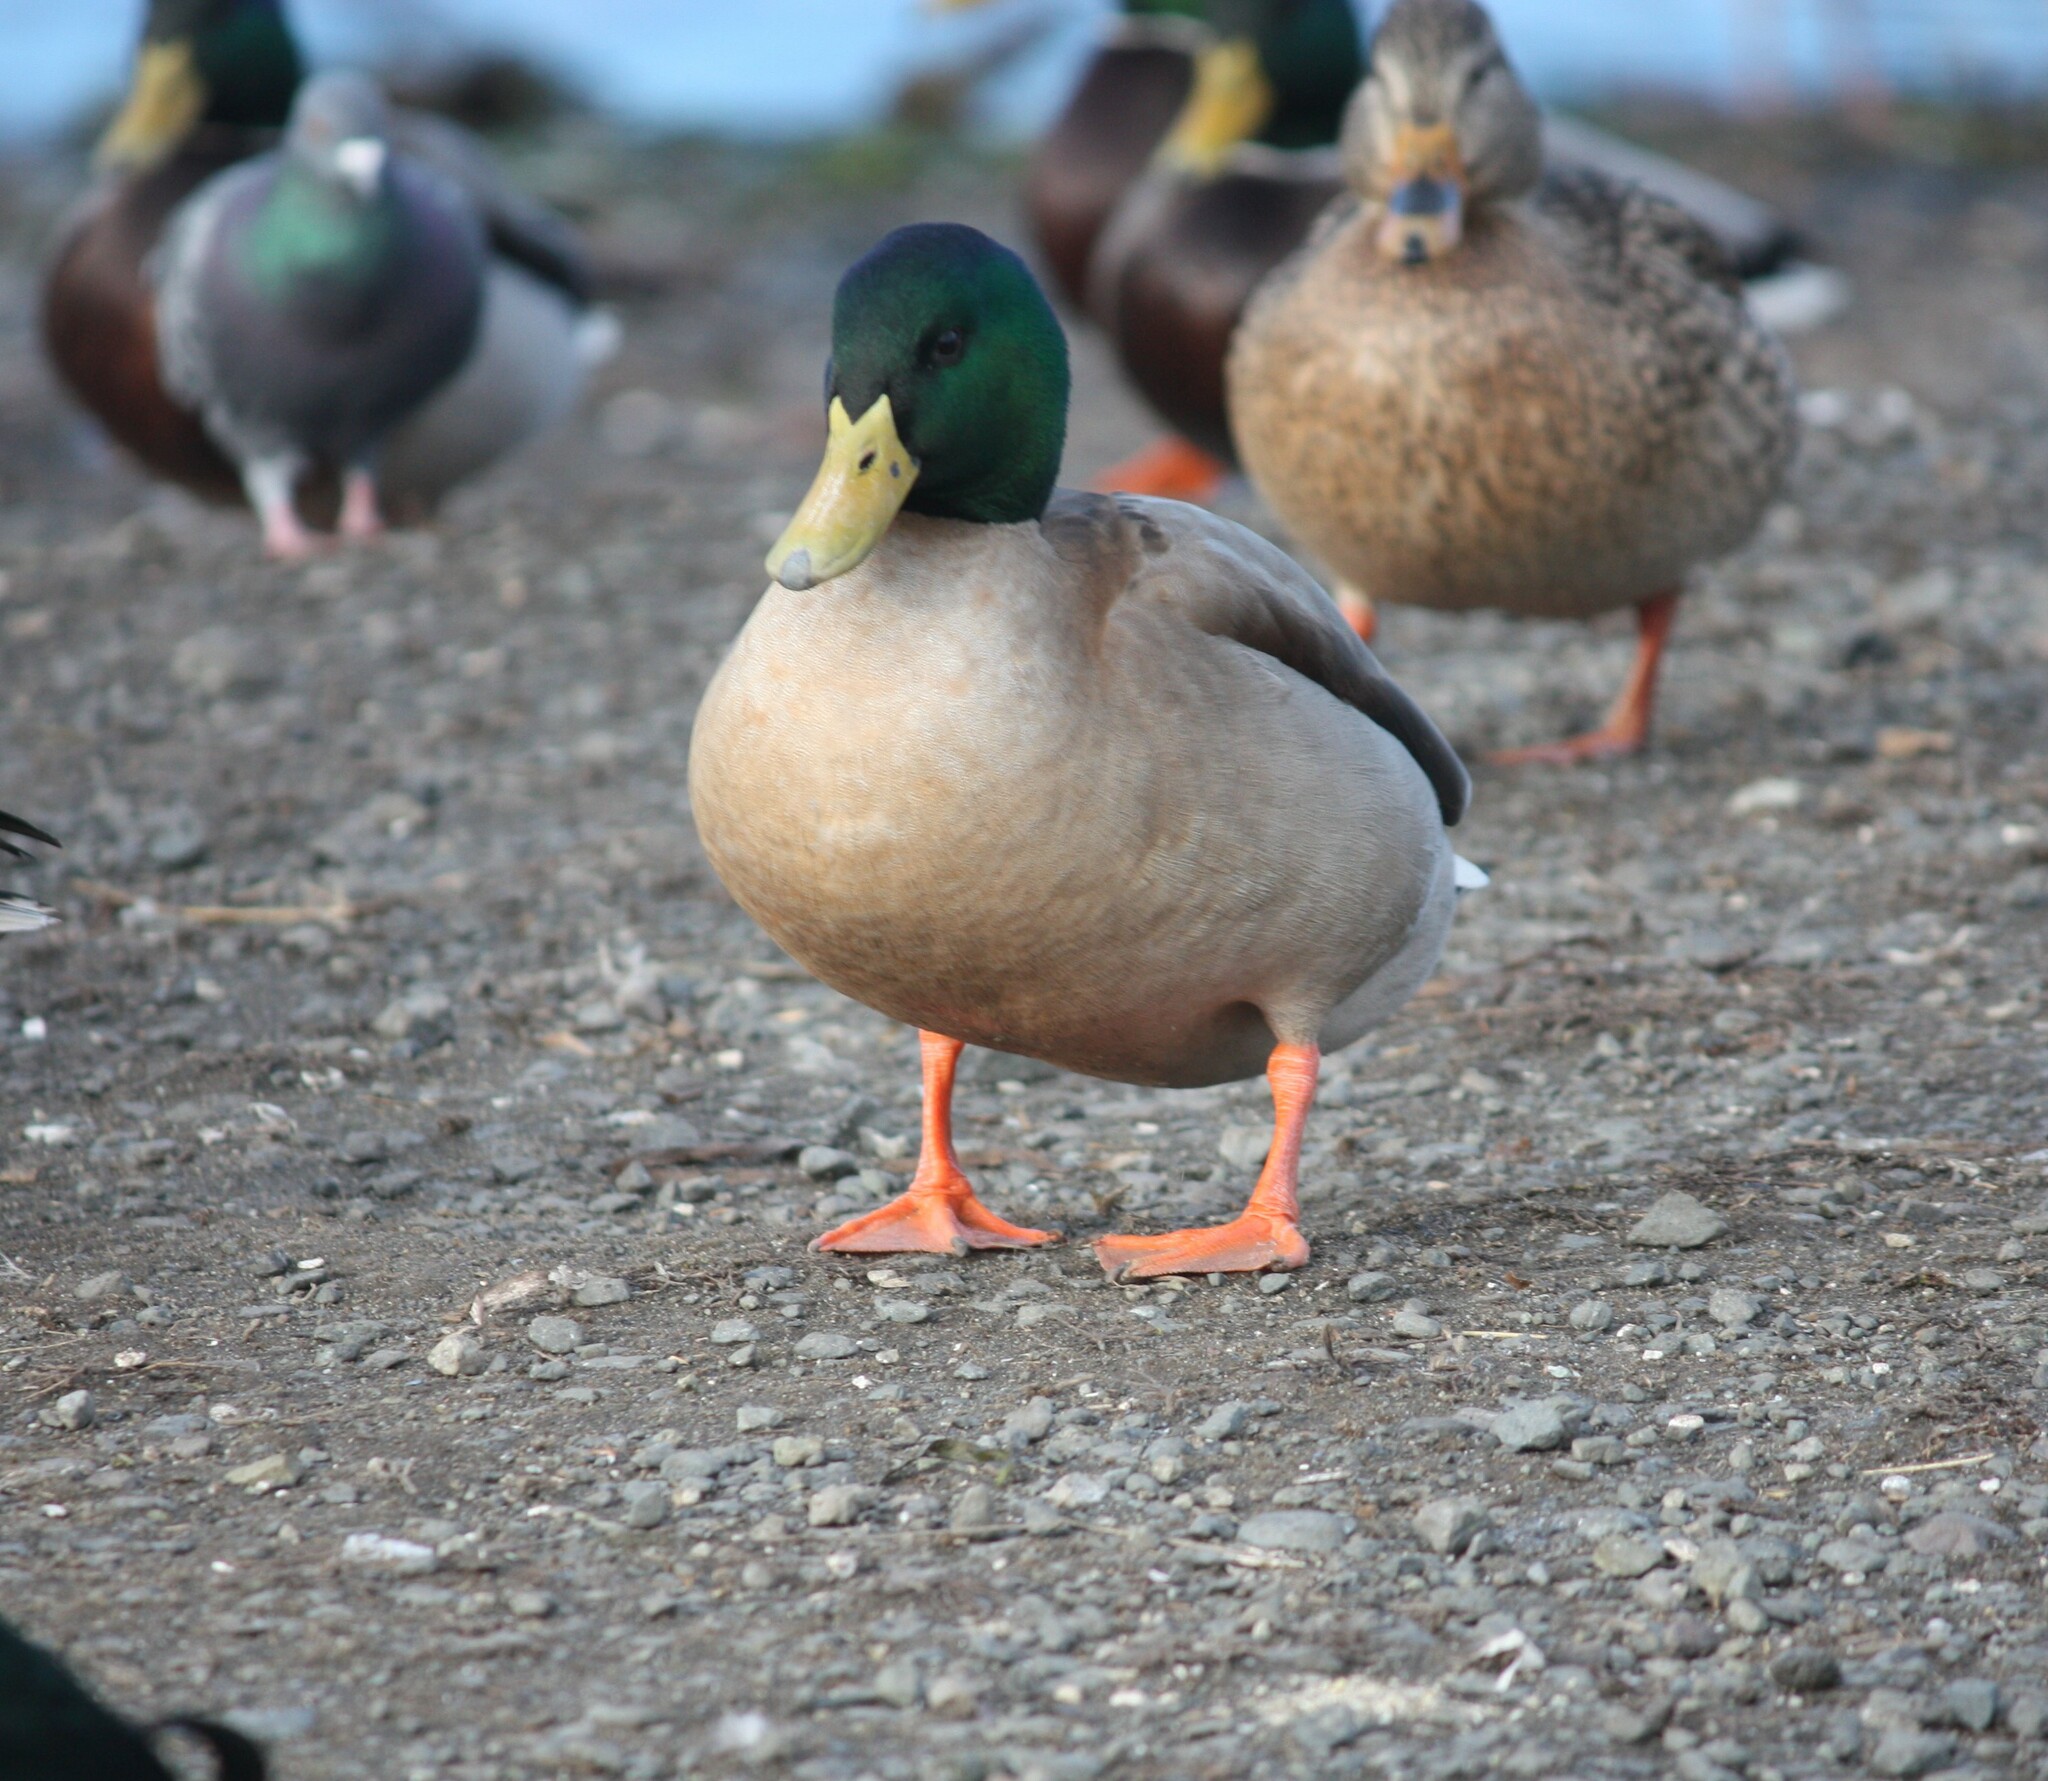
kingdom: Animalia
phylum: Chordata
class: Aves
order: Anseriformes
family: Anatidae
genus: Anas
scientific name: Anas platyrhynchos
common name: Mallard
